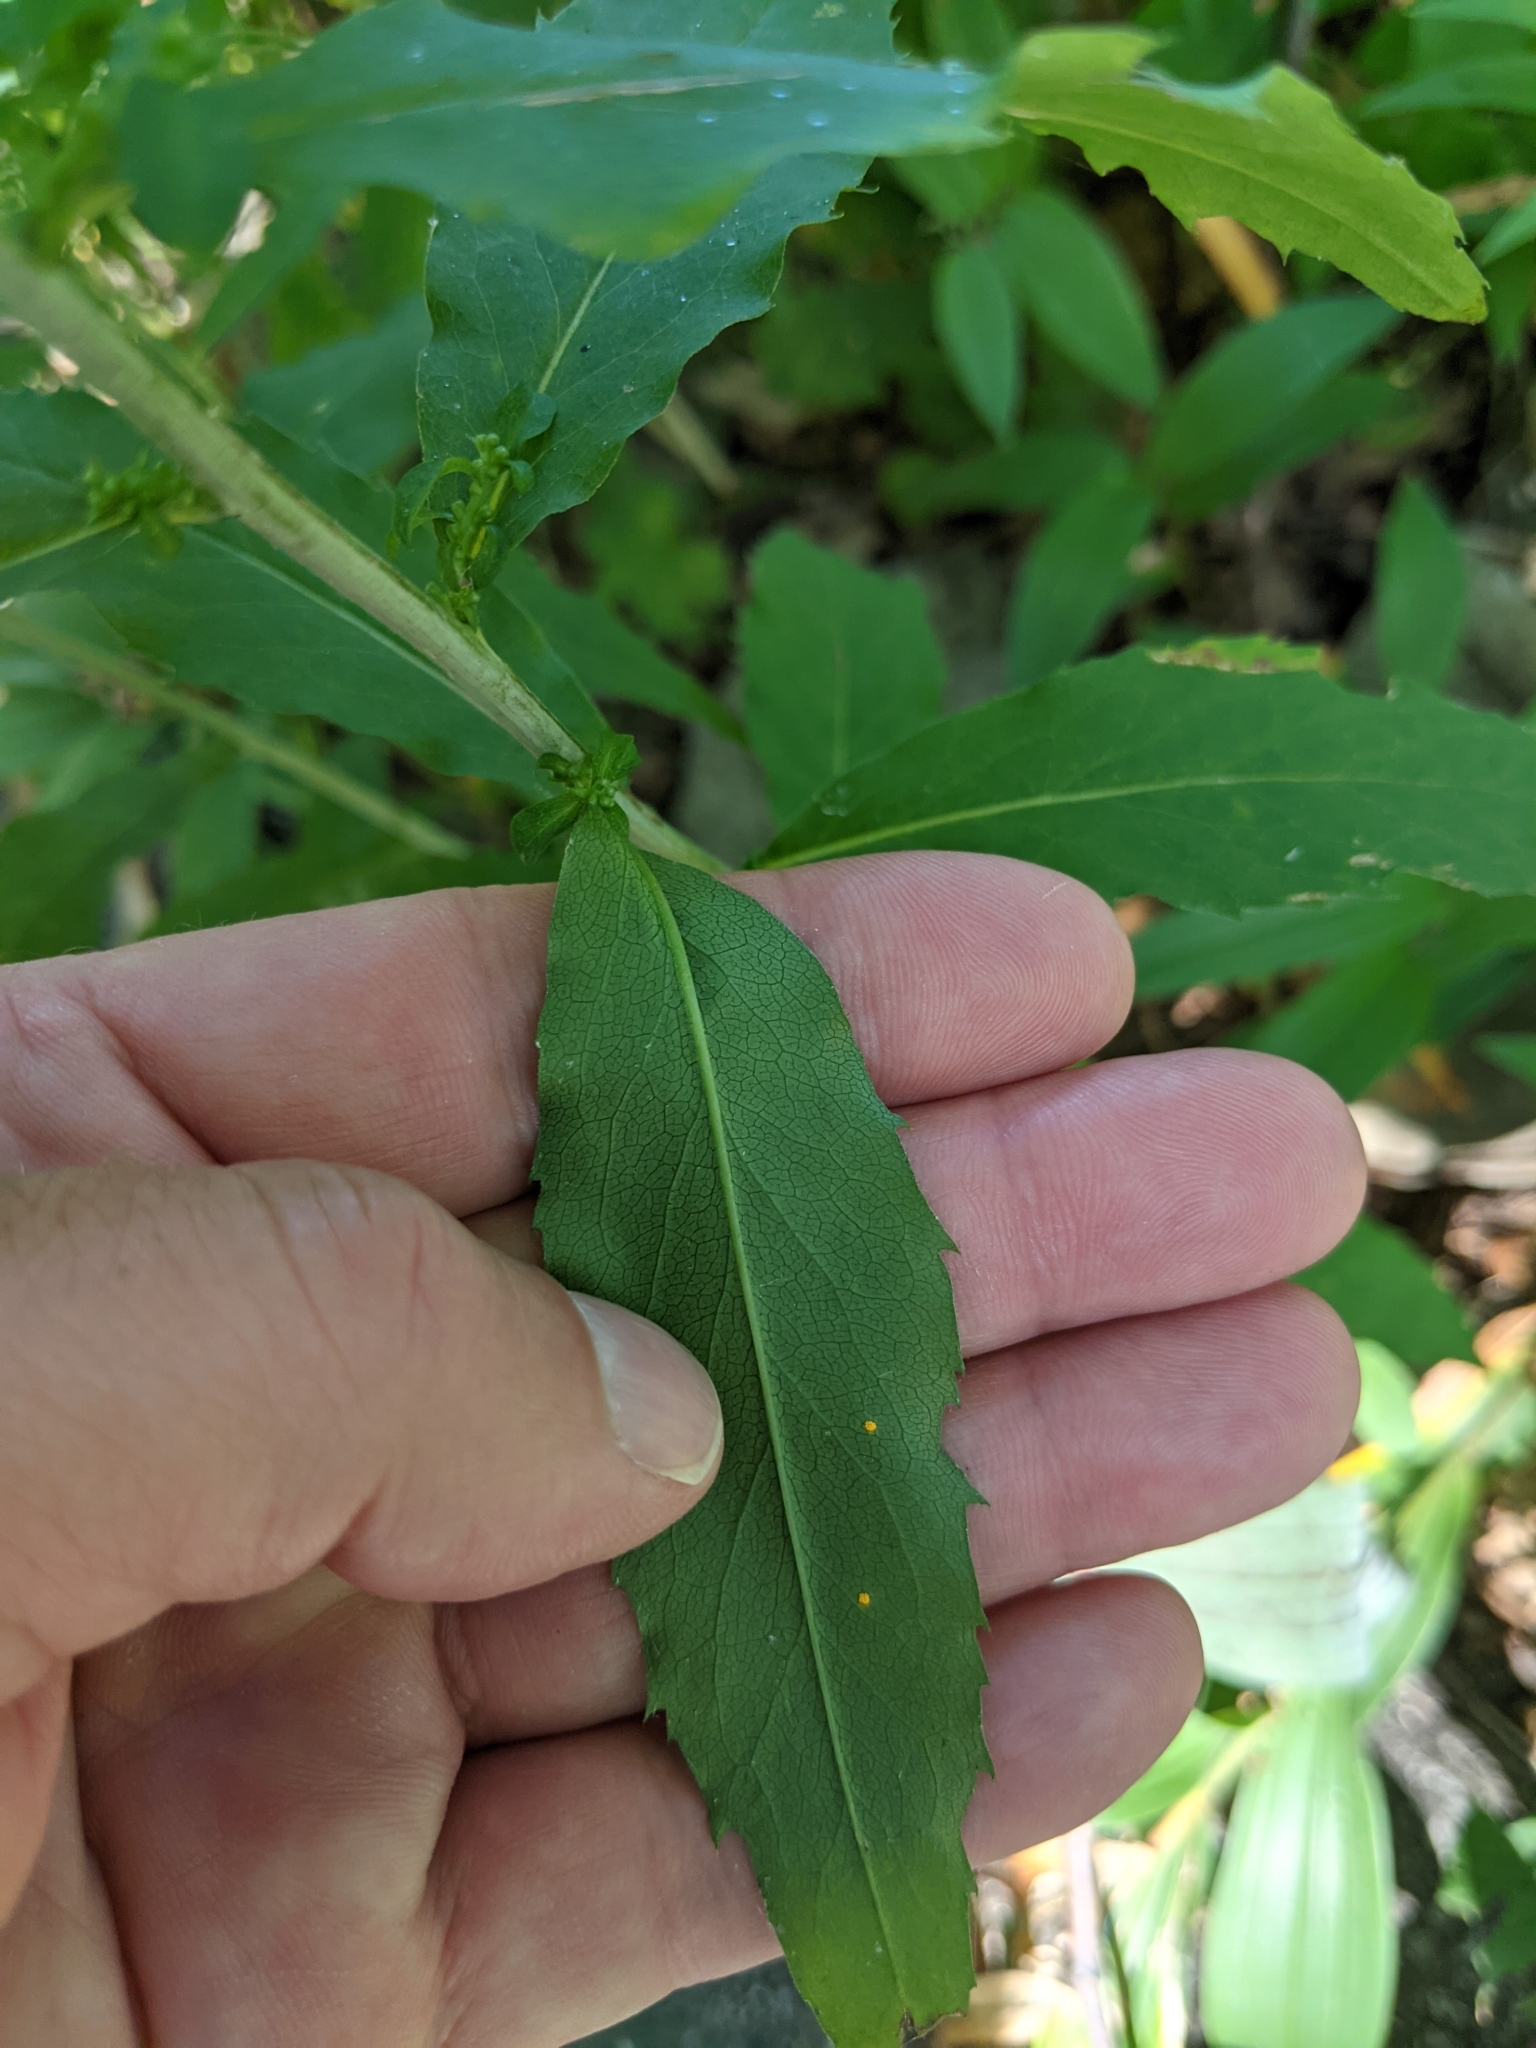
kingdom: Plantae
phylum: Tracheophyta
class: Magnoliopsida
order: Asterales
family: Asteraceae
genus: Solidago
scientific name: Solidago caesia
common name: Woodland goldenrod
